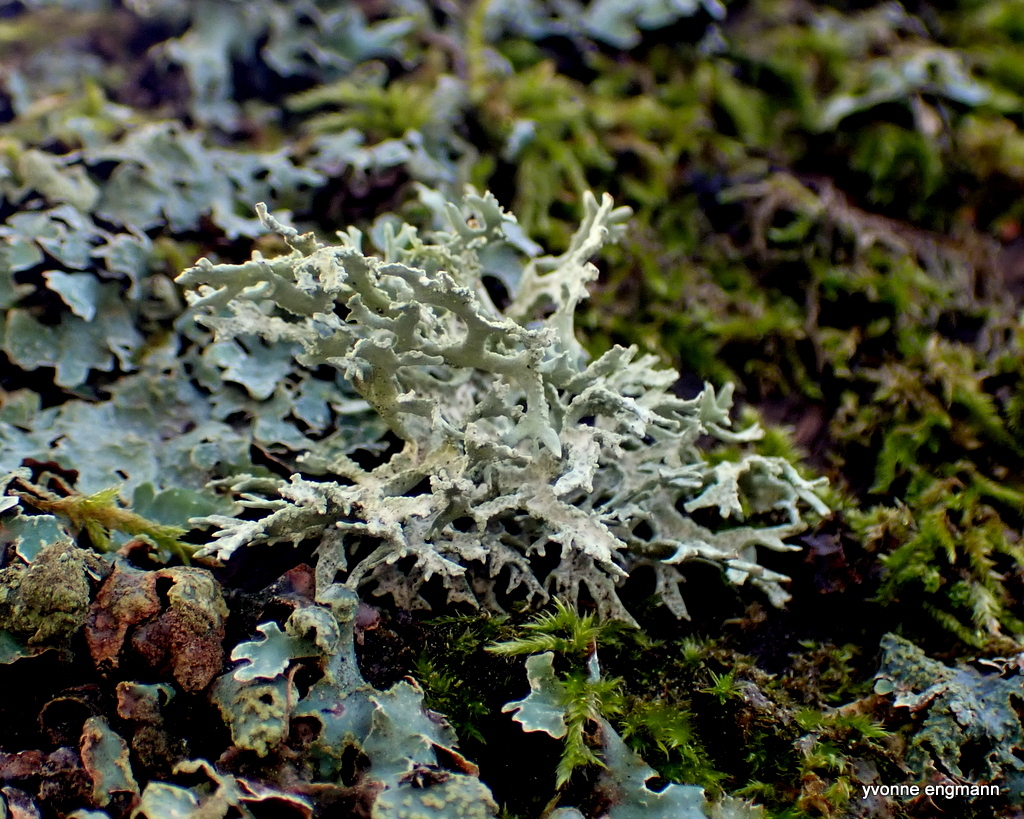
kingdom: Fungi
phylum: Ascomycota
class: Lecanoromycetes
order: Lecanorales
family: Parmeliaceae
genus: Evernia
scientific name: Evernia prunastri
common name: Oak moss
